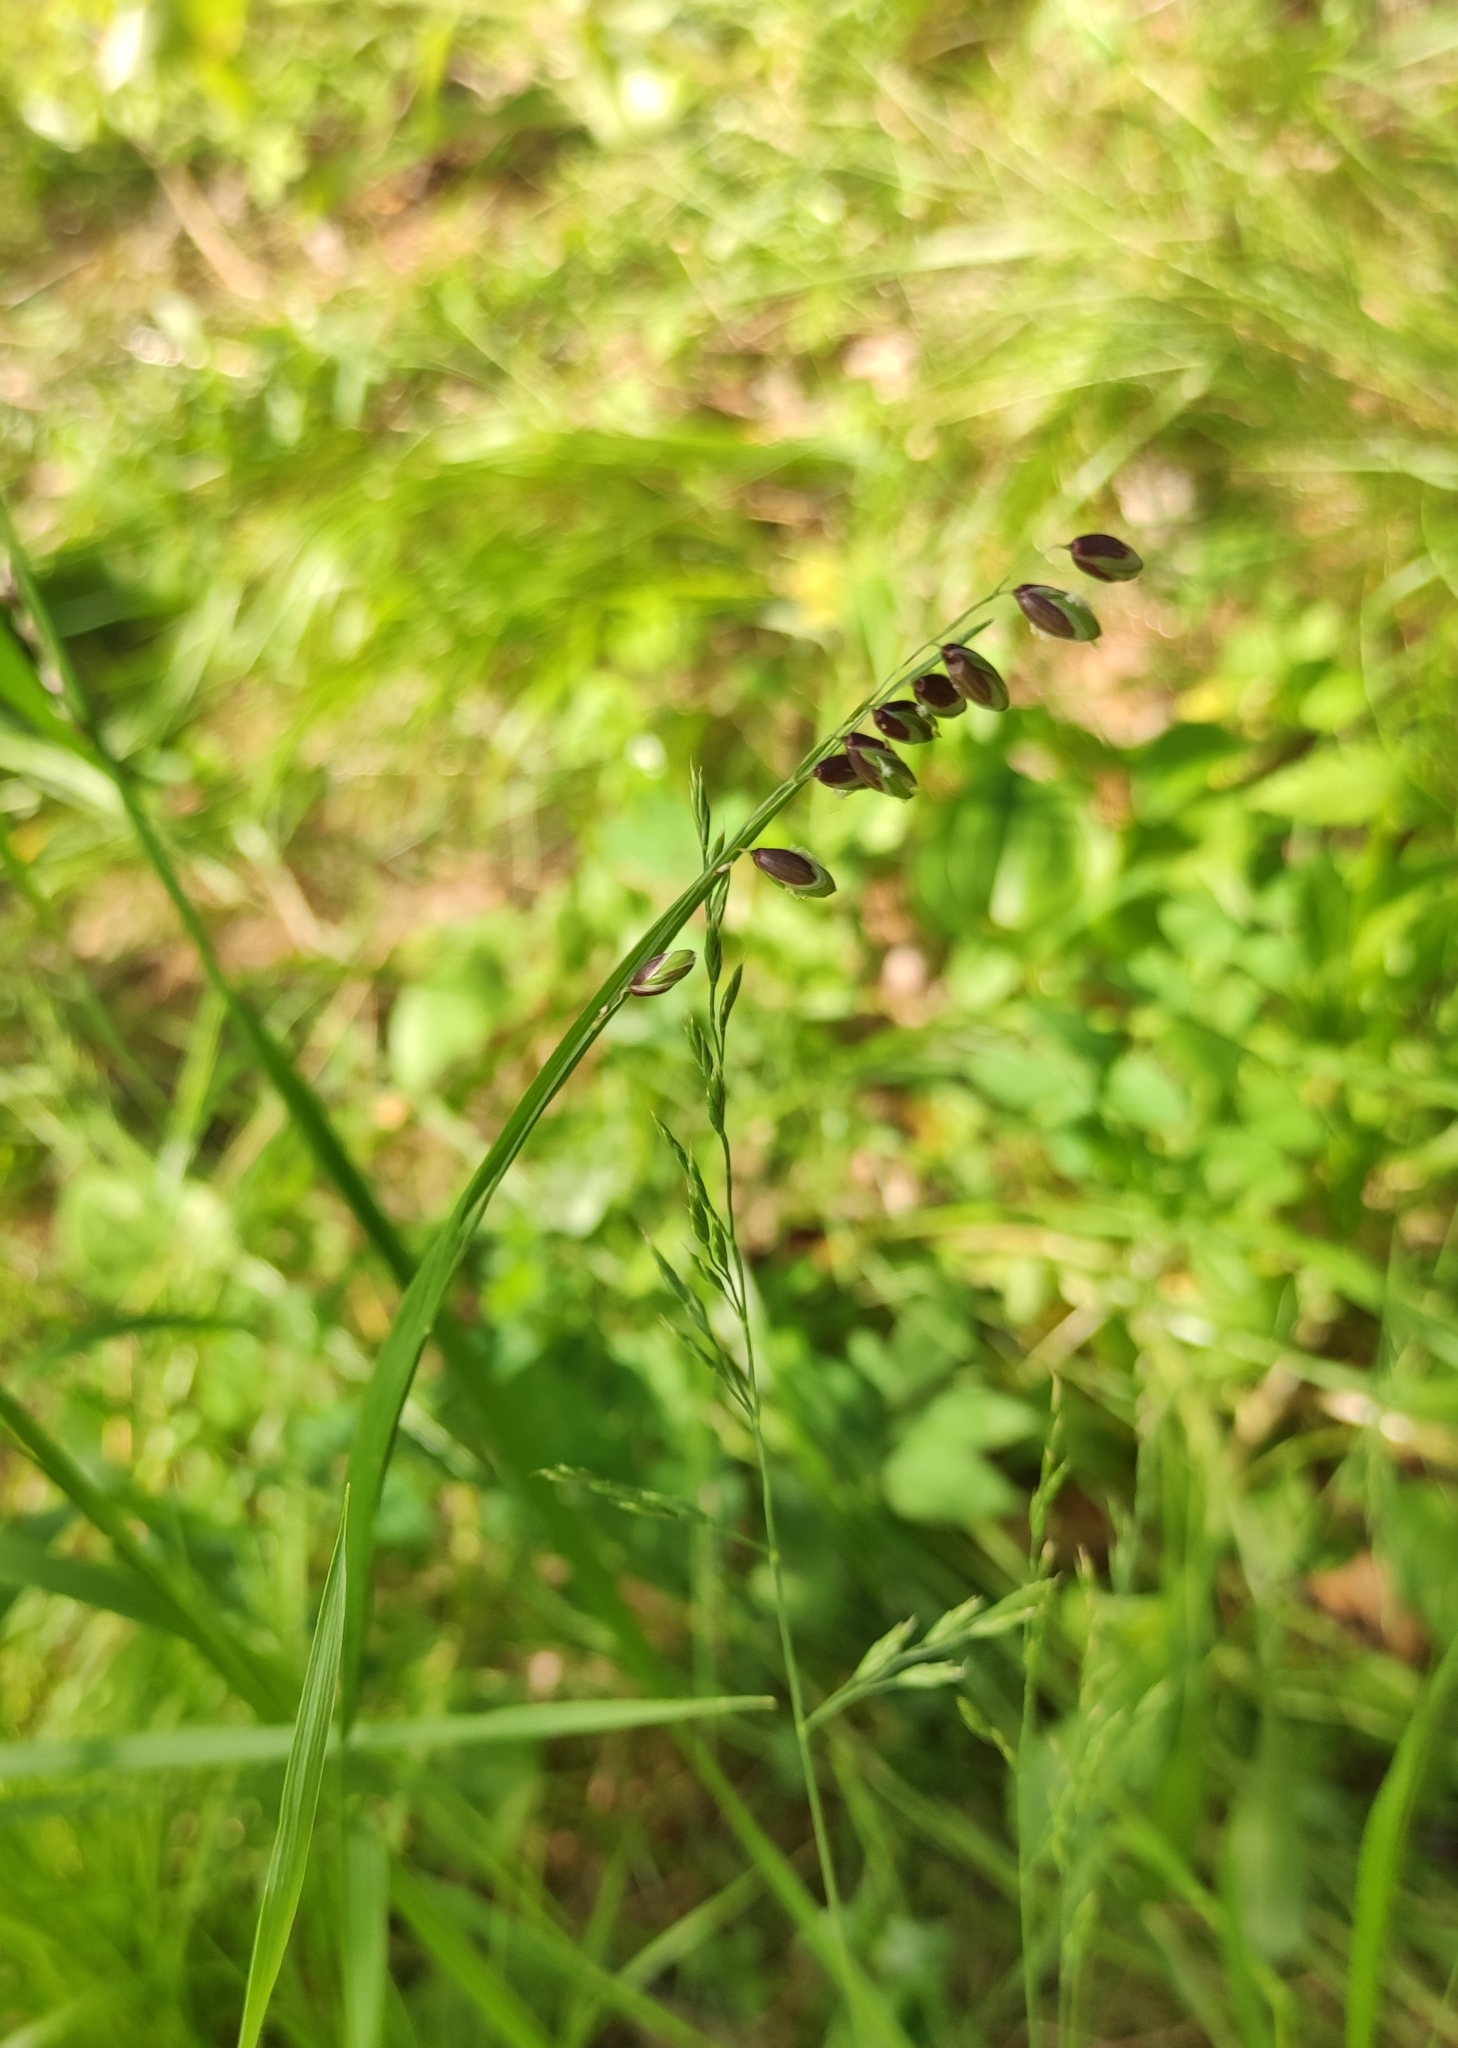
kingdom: Plantae
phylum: Tracheophyta
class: Liliopsida
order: Poales
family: Poaceae
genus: Melica
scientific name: Melica nutans
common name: Mountain melick
